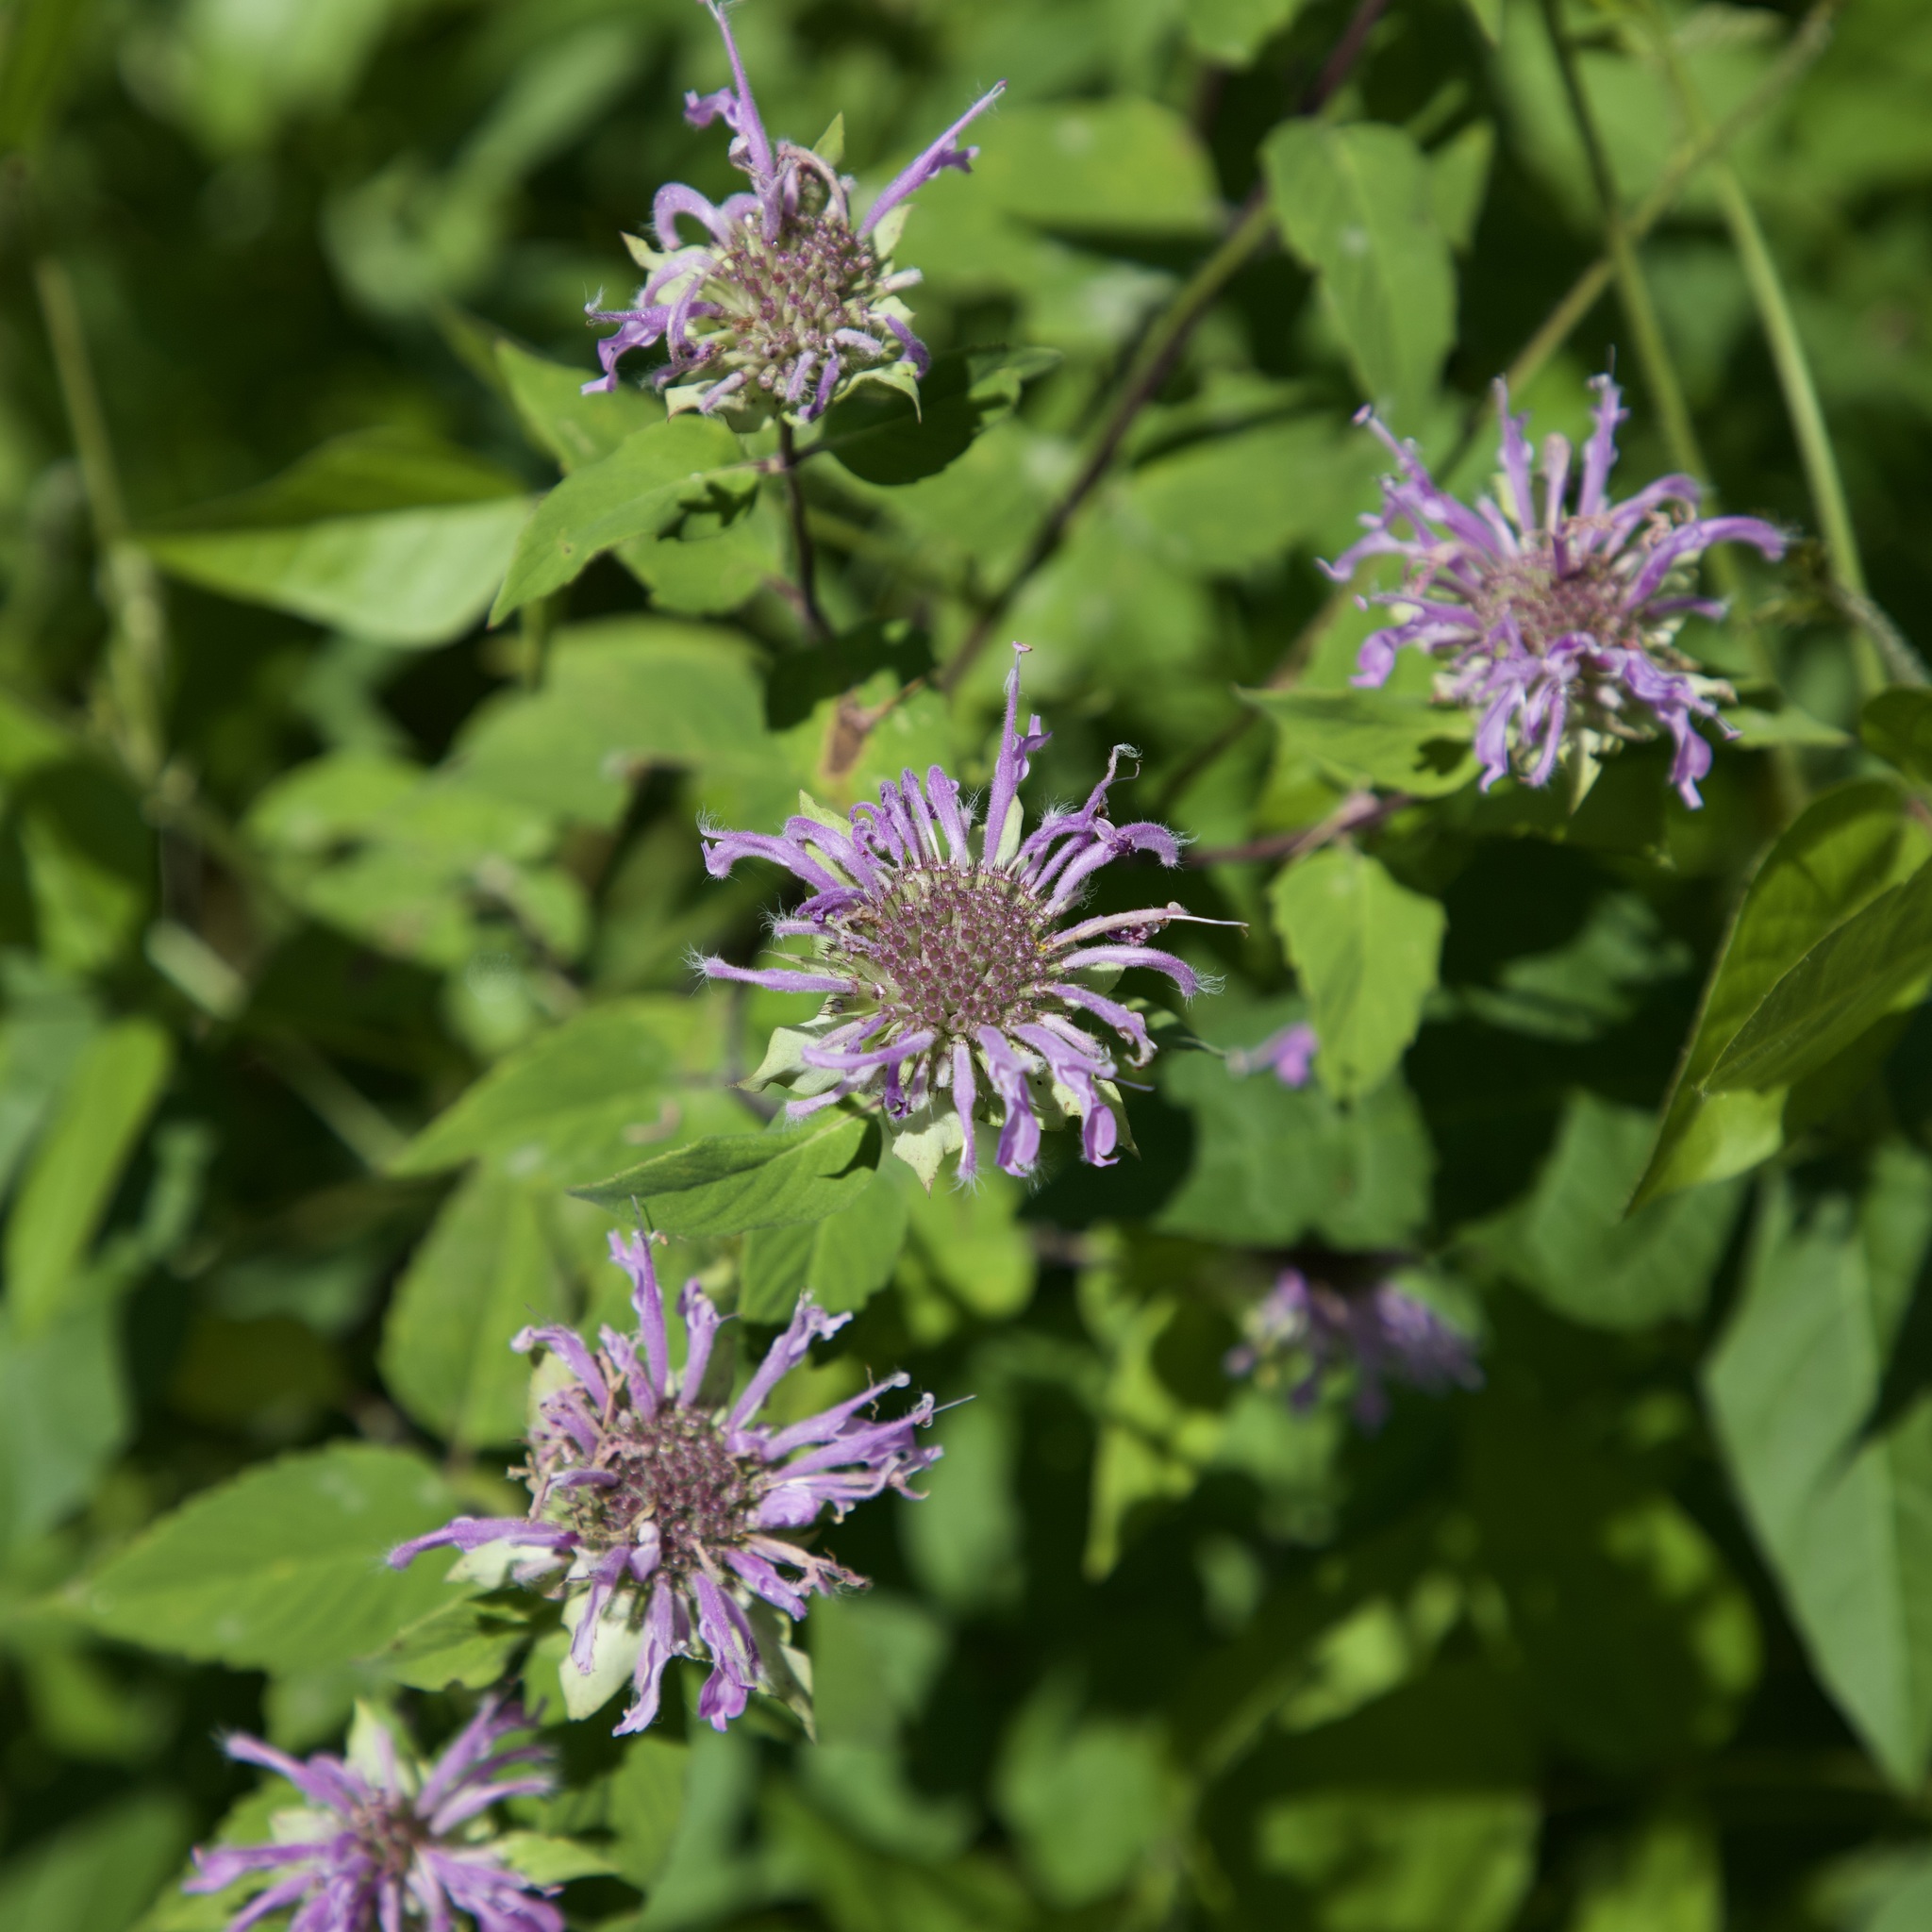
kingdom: Plantae
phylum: Tracheophyta
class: Magnoliopsida
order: Lamiales
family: Lamiaceae
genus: Monarda
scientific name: Monarda fistulosa
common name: Purple beebalm
